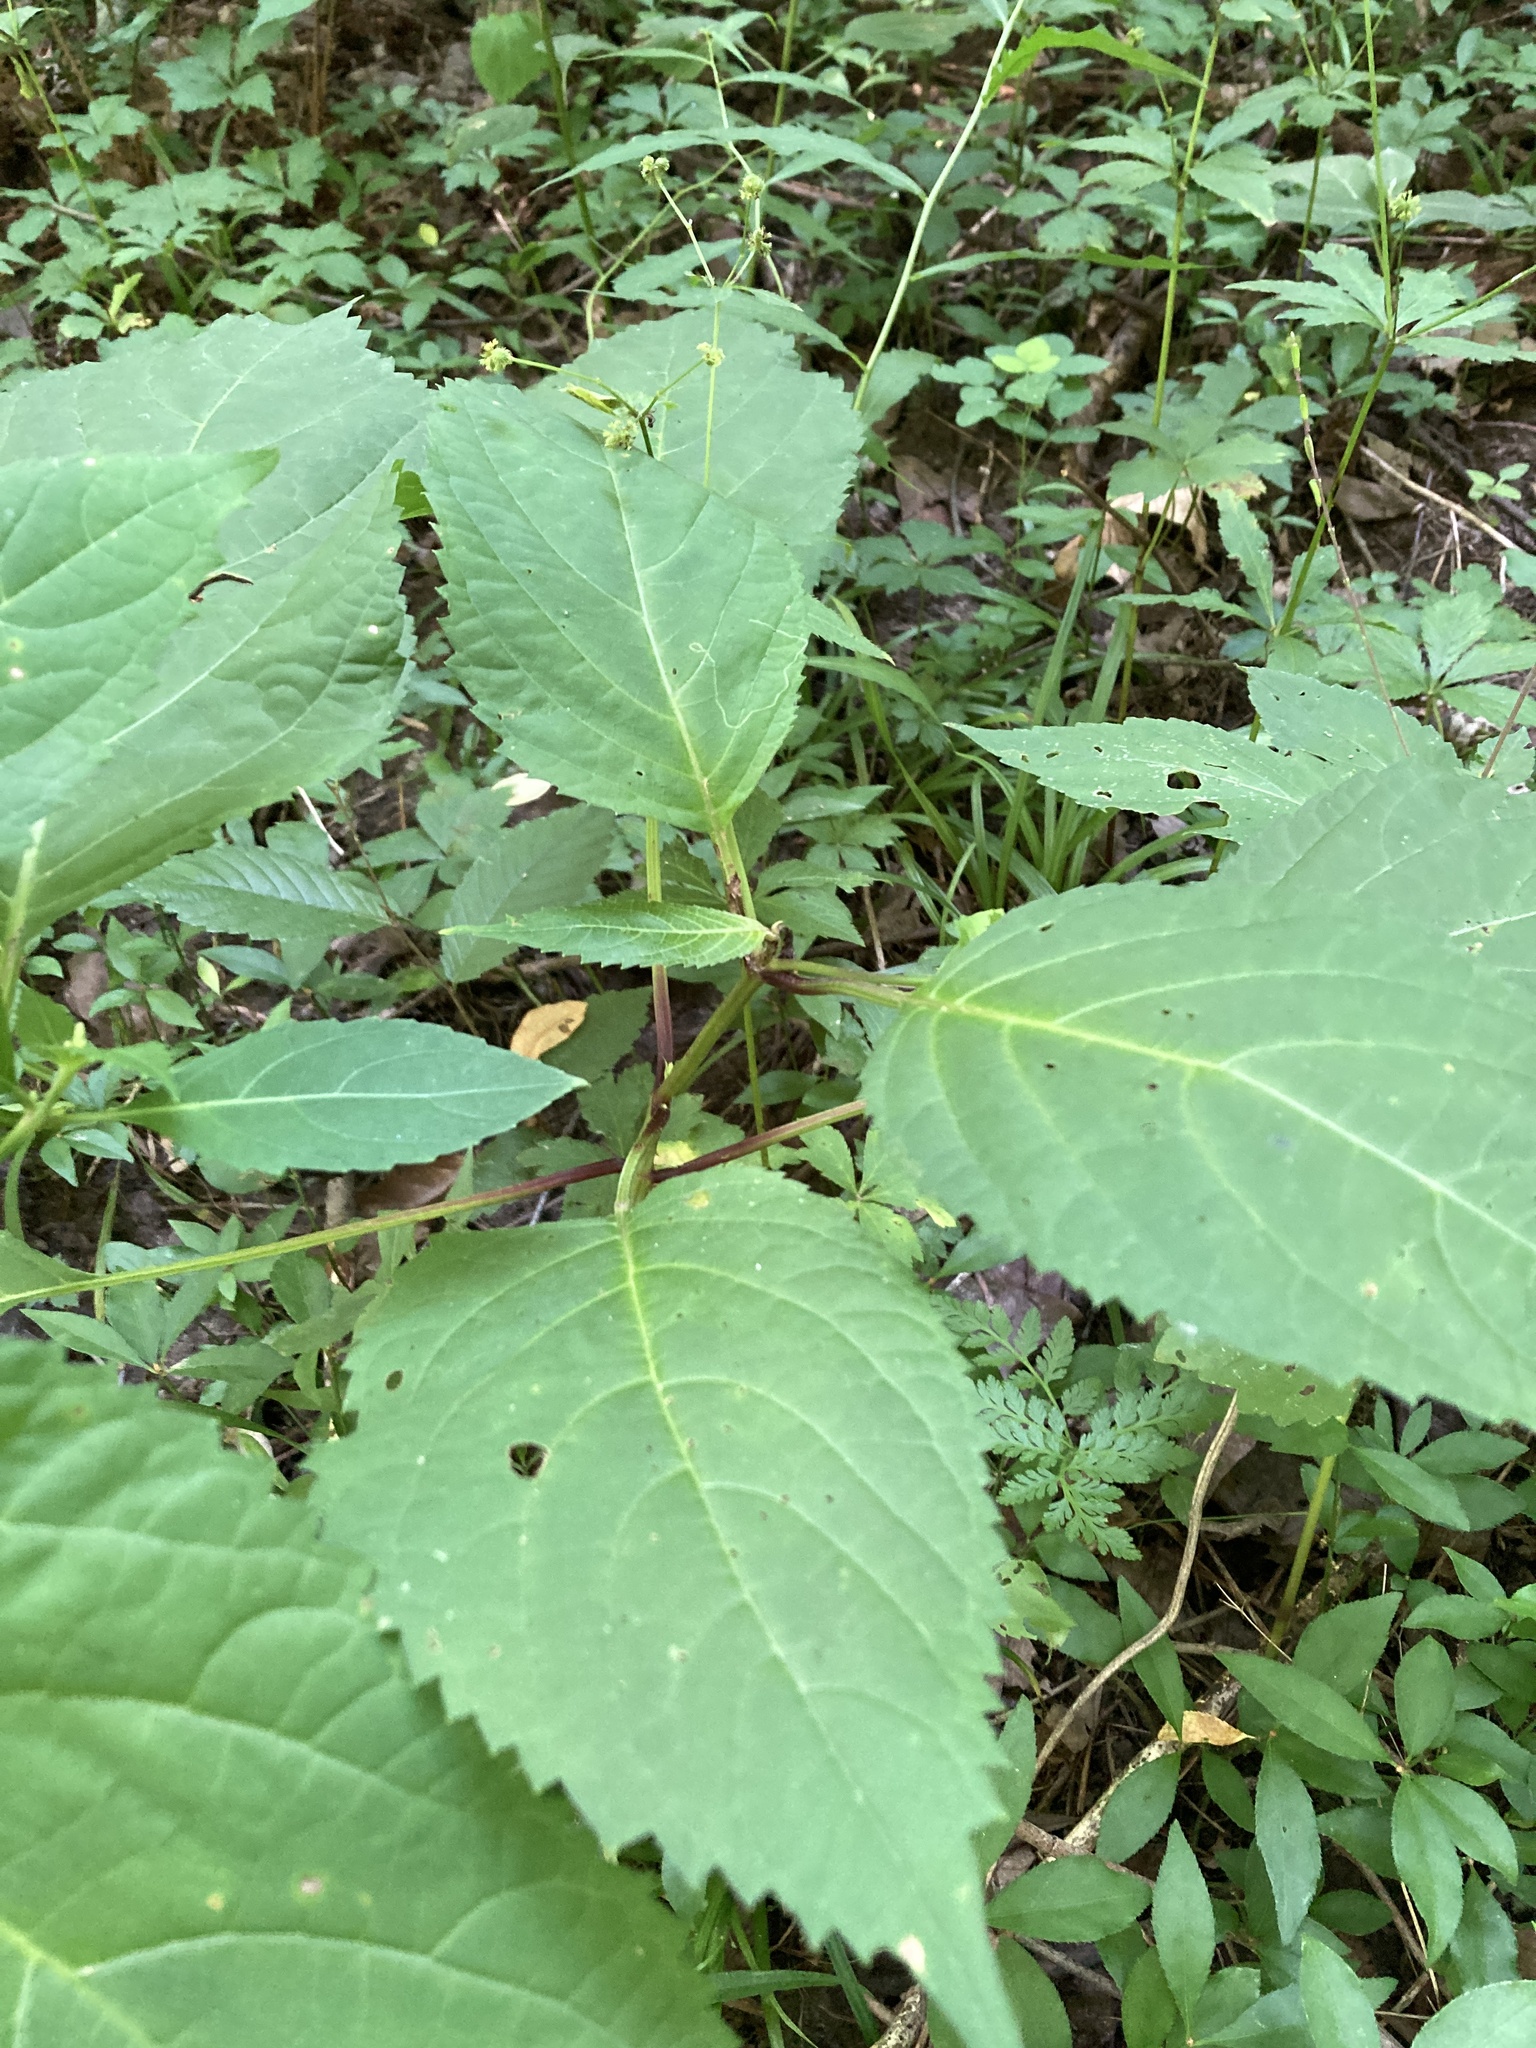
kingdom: Plantae
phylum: Tracheophyta
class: Magnoliopsida
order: Lamiales
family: Lamiaceae
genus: Collinsonia
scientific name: Collinsonia canadensis
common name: Northern horsebalm
